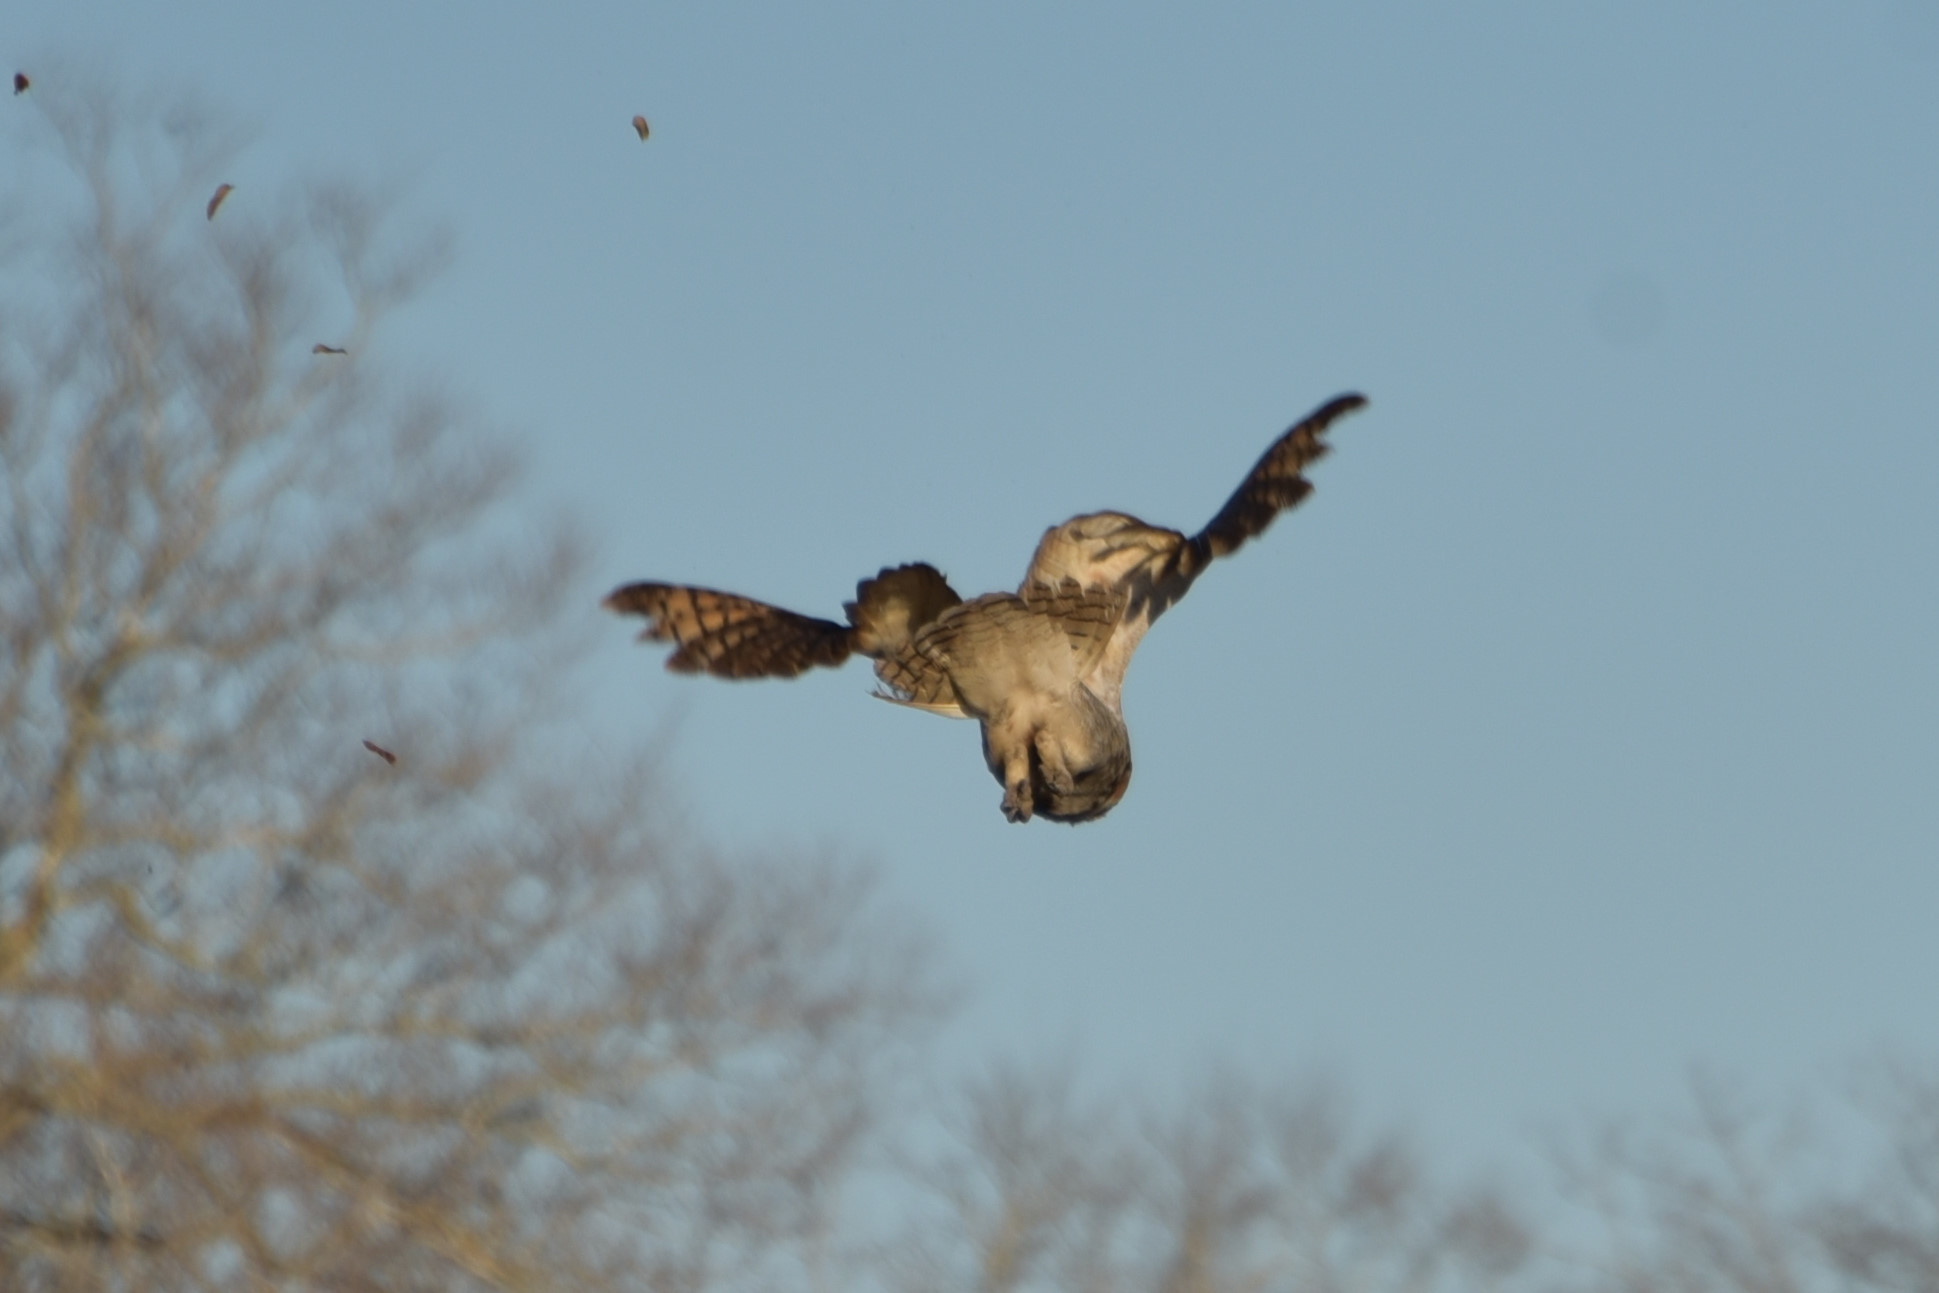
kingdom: Animalia
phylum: Chordata
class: Aves
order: Strigiformes
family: Strigidae
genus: Bubo
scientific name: Bubo virginianus
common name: Great horned owl
